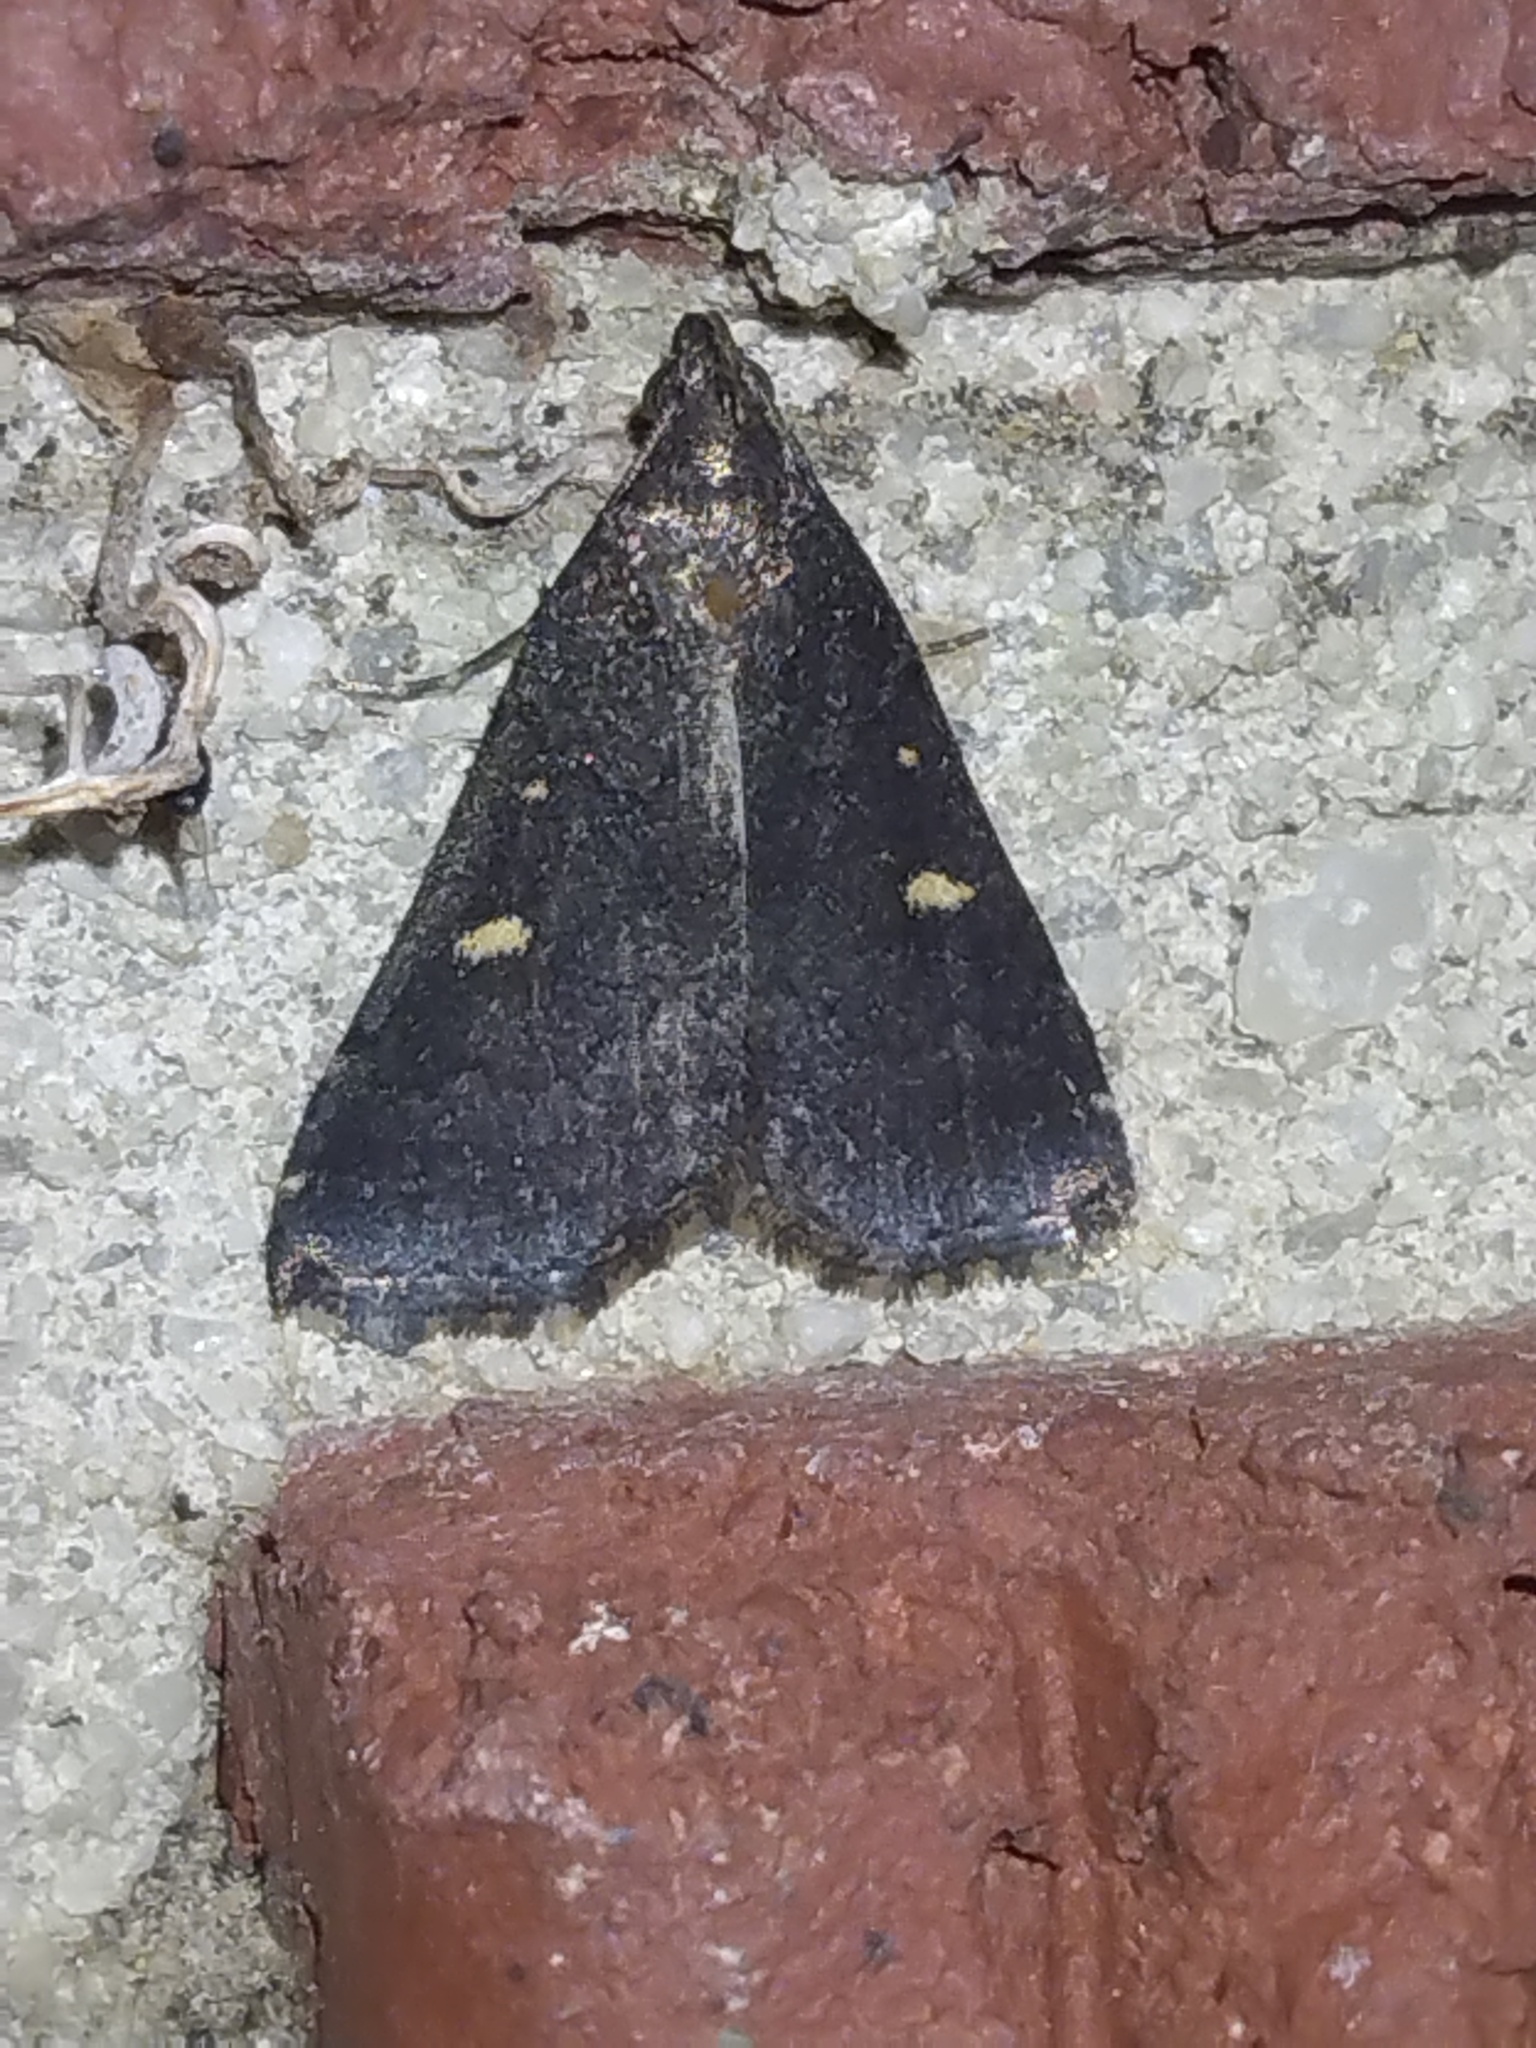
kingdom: Animalia
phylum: Arthropoda
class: Insecta
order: Lepidoptera
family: Erebidae
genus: Tetanolita
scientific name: Tetanolita mynesalis
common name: Smoky tetanolita moth
